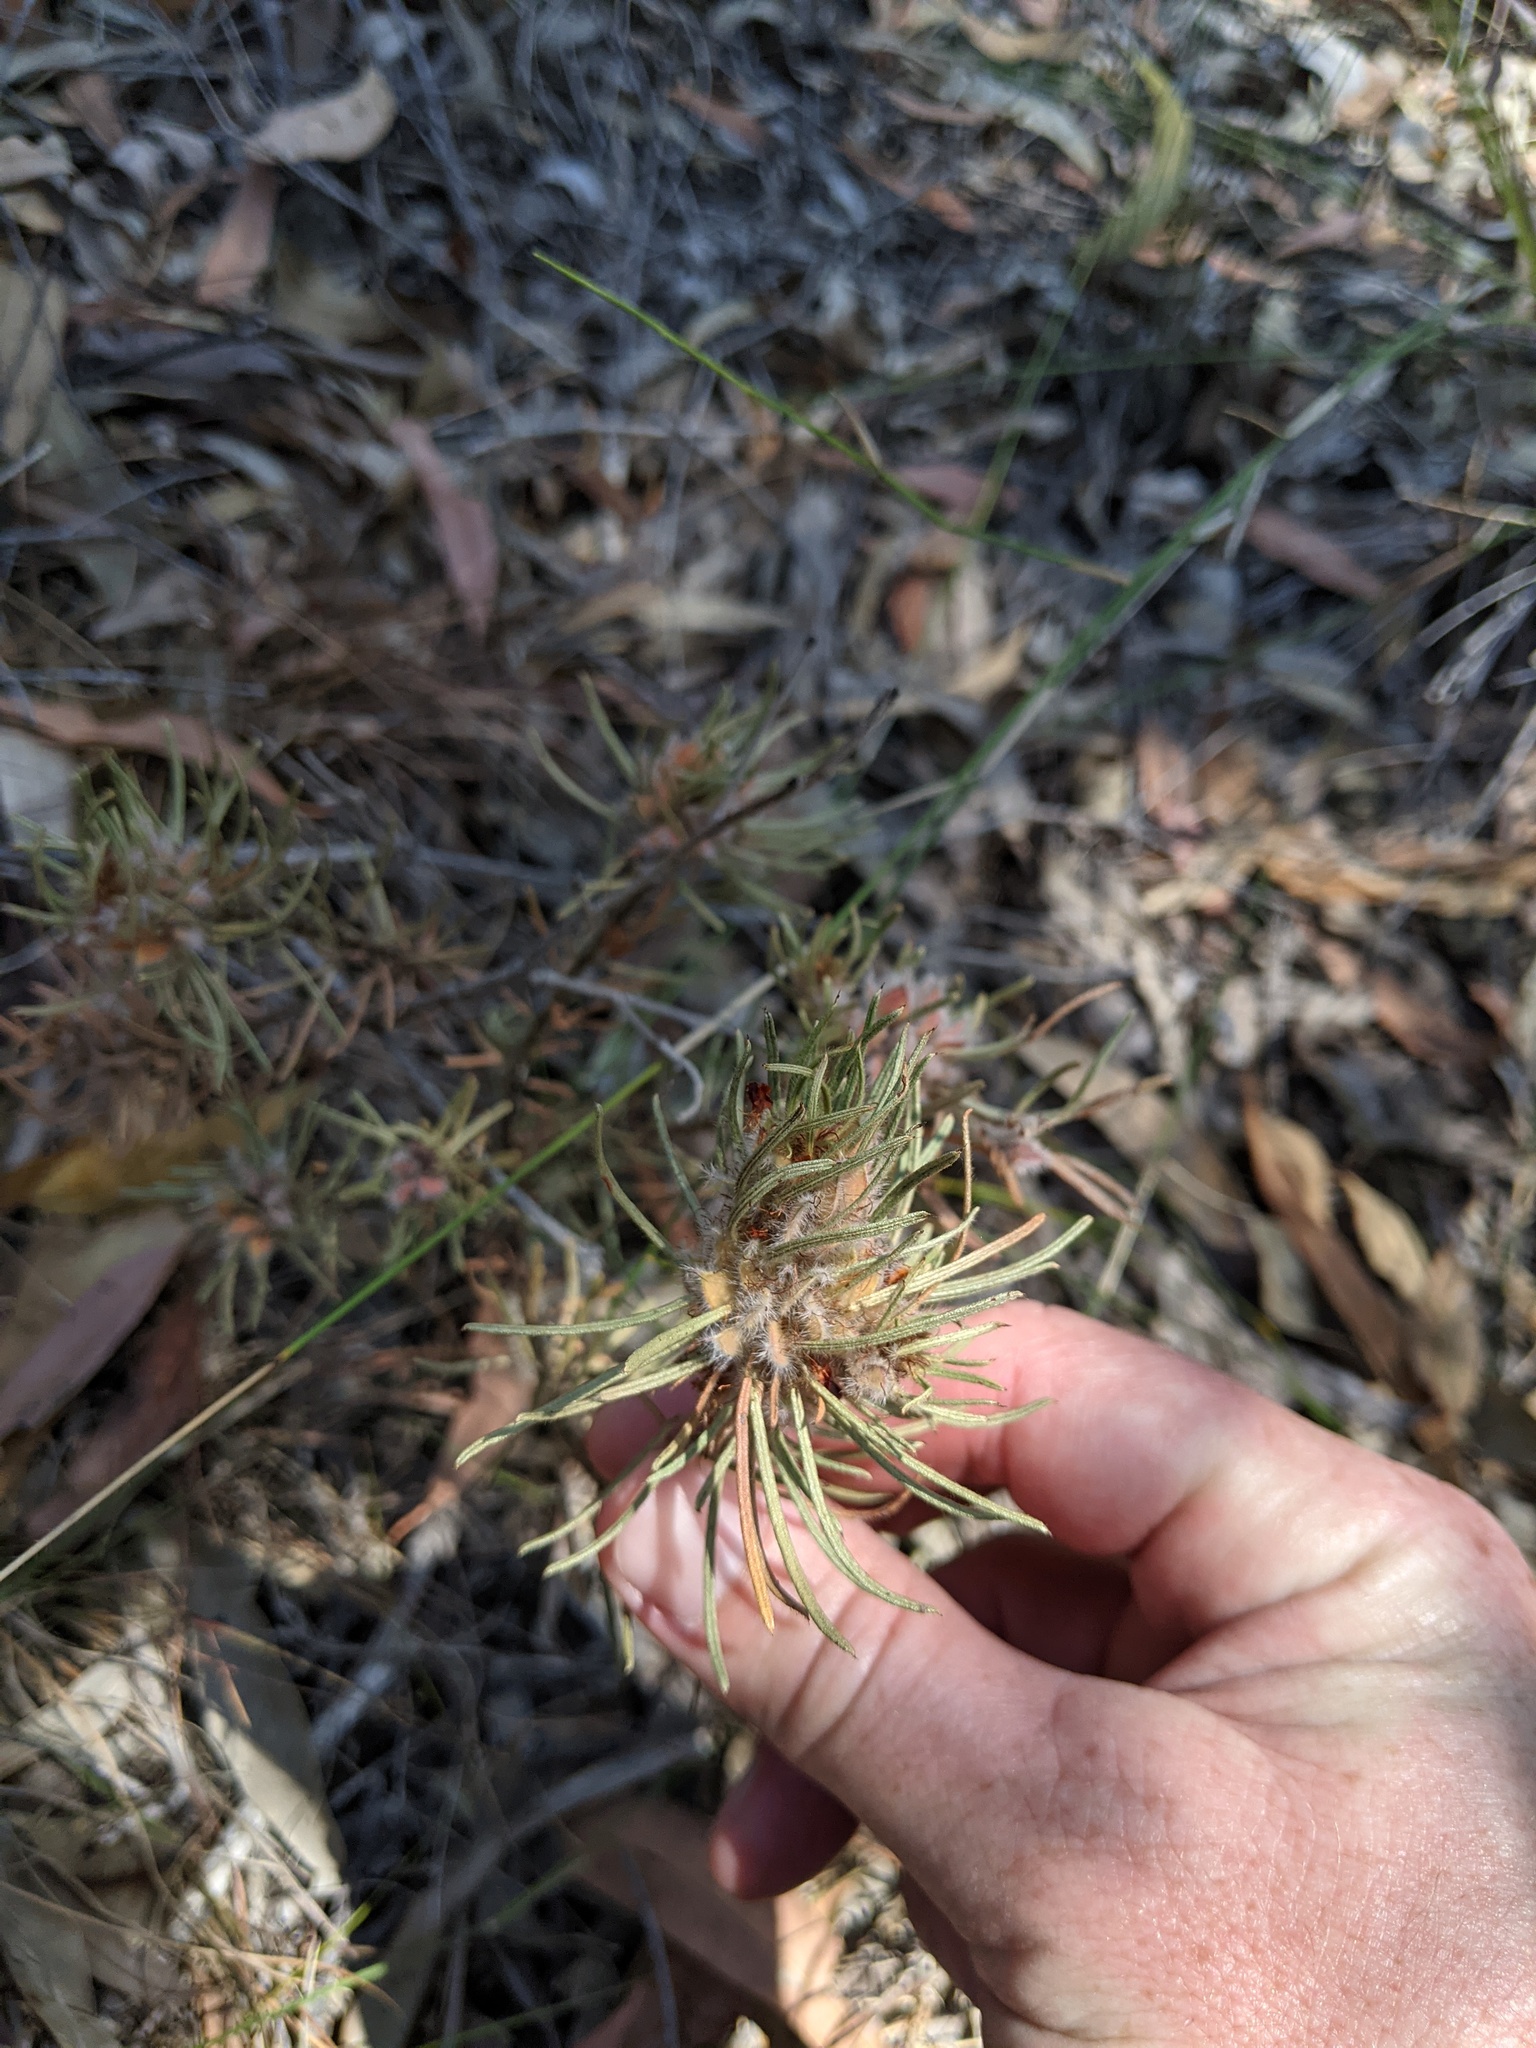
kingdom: Plantae
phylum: Tracheophyta
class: Magnoliopsida
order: Fabales
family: Fabaceae
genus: Pultenaea
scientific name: Pultenaea petiolaris
